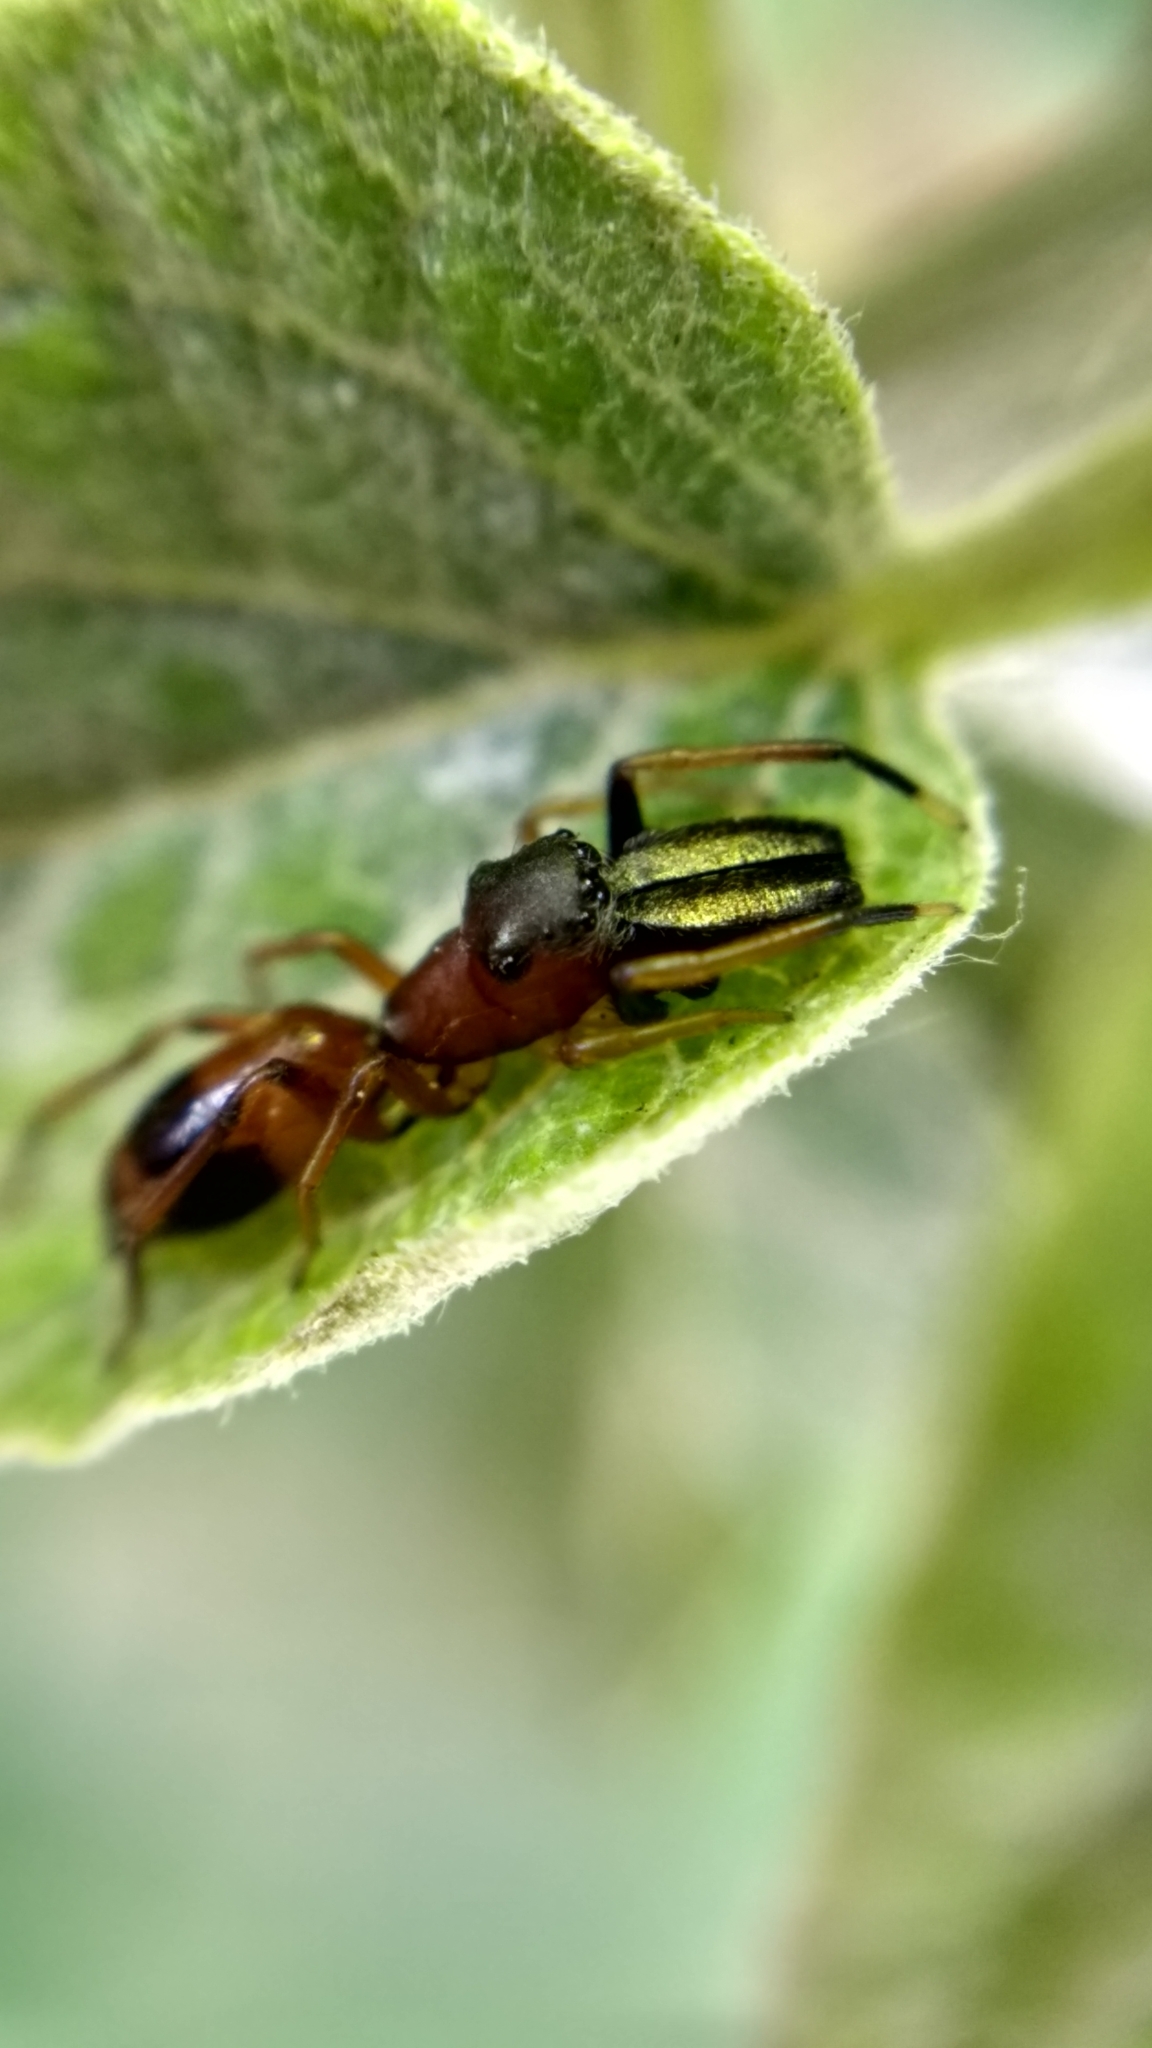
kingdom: Animalia
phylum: Arthropoda
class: Arachnida
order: Araneae
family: Salticidae
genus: Myrmarachne
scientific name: Myrmarachne formicaria
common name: Ant mimic jumping spider
